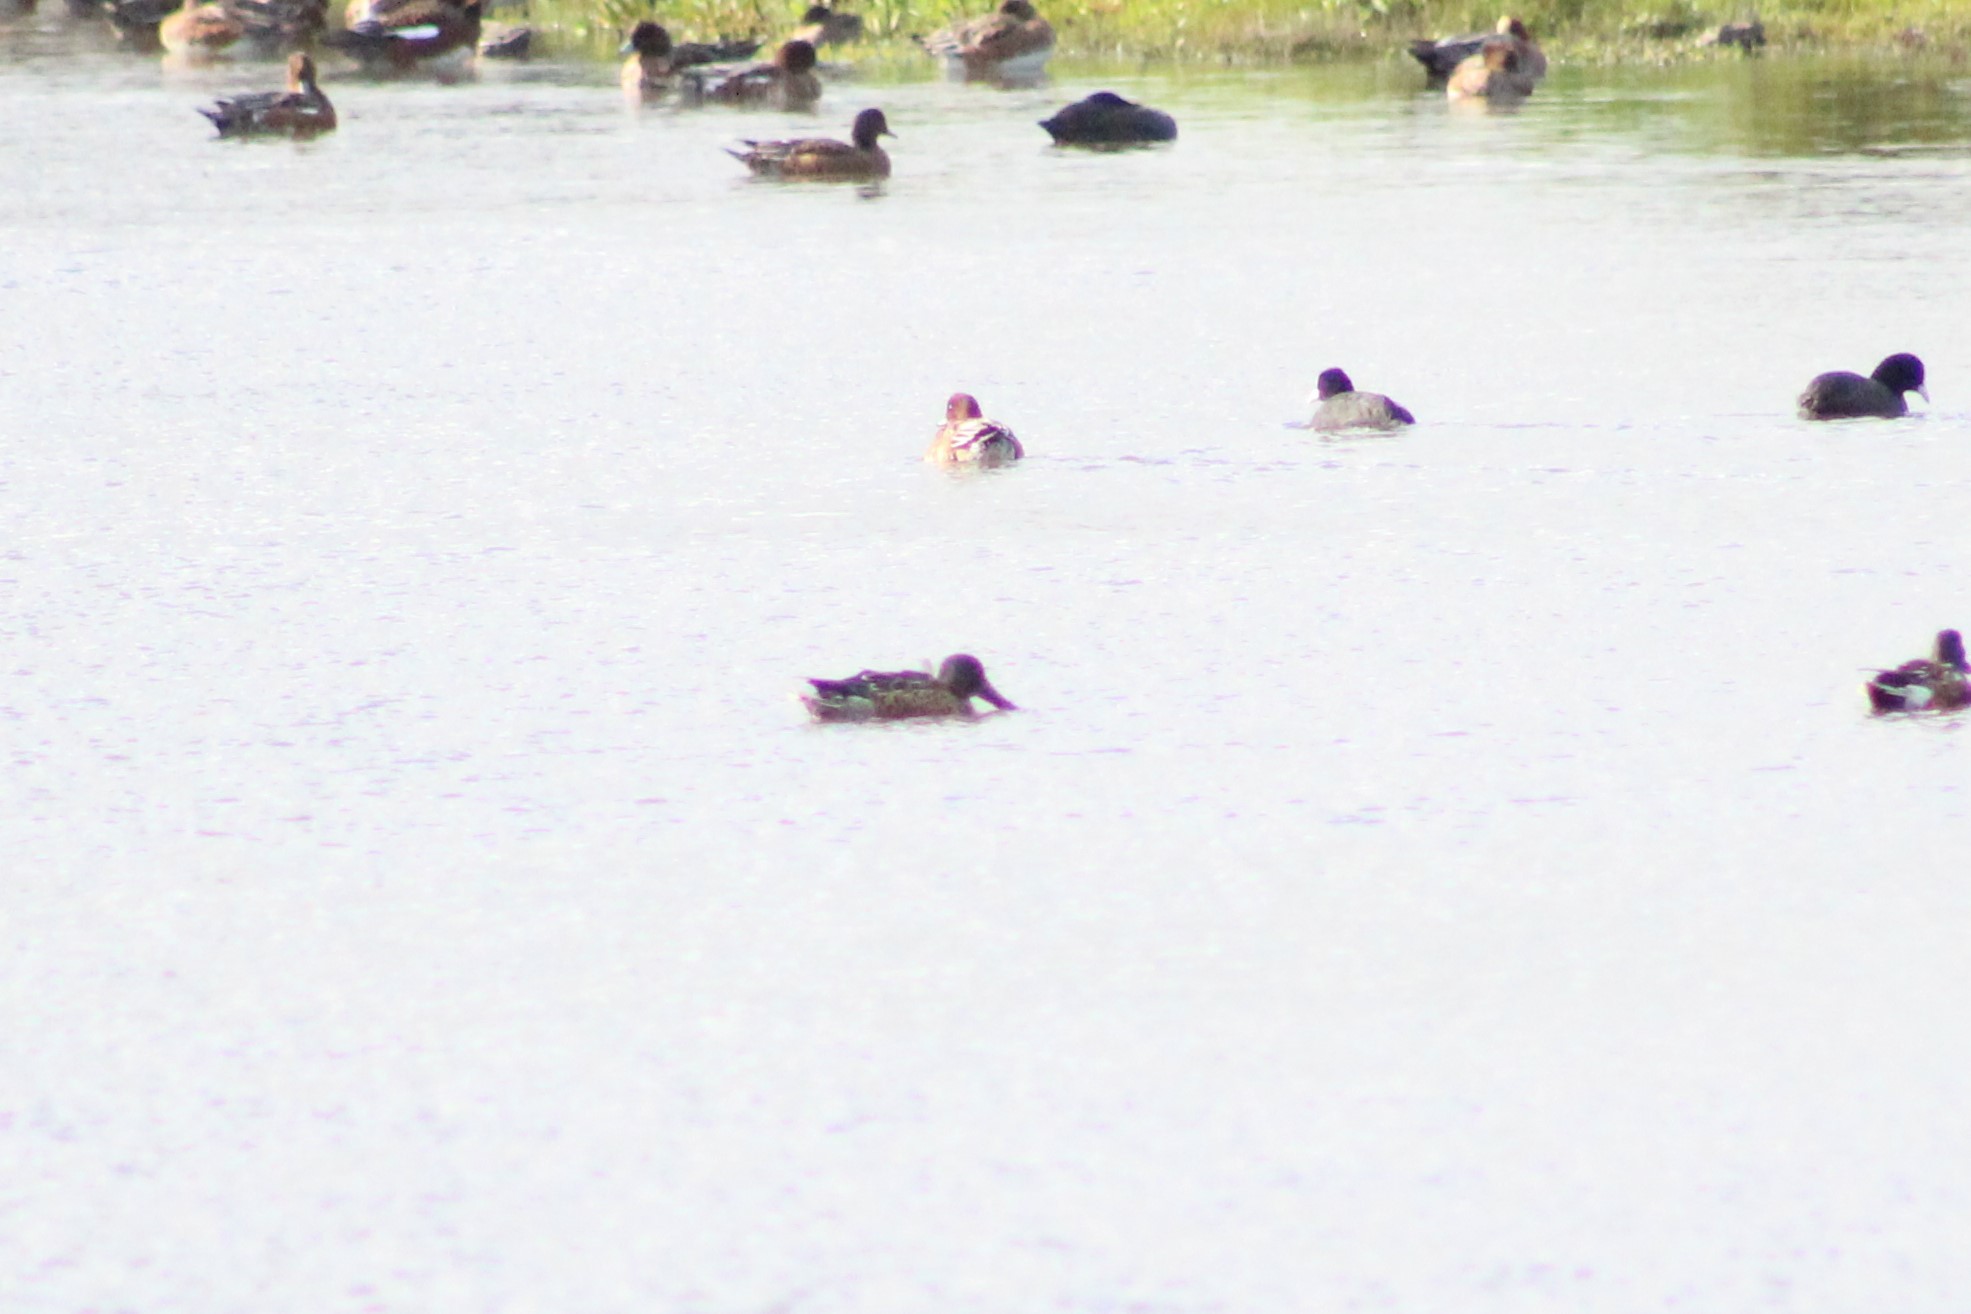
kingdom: Animalia
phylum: Chordata
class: Aves
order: Anseriformes
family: Anatidae
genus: Spatula
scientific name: Spatula clypeata
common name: Northern shoveler
